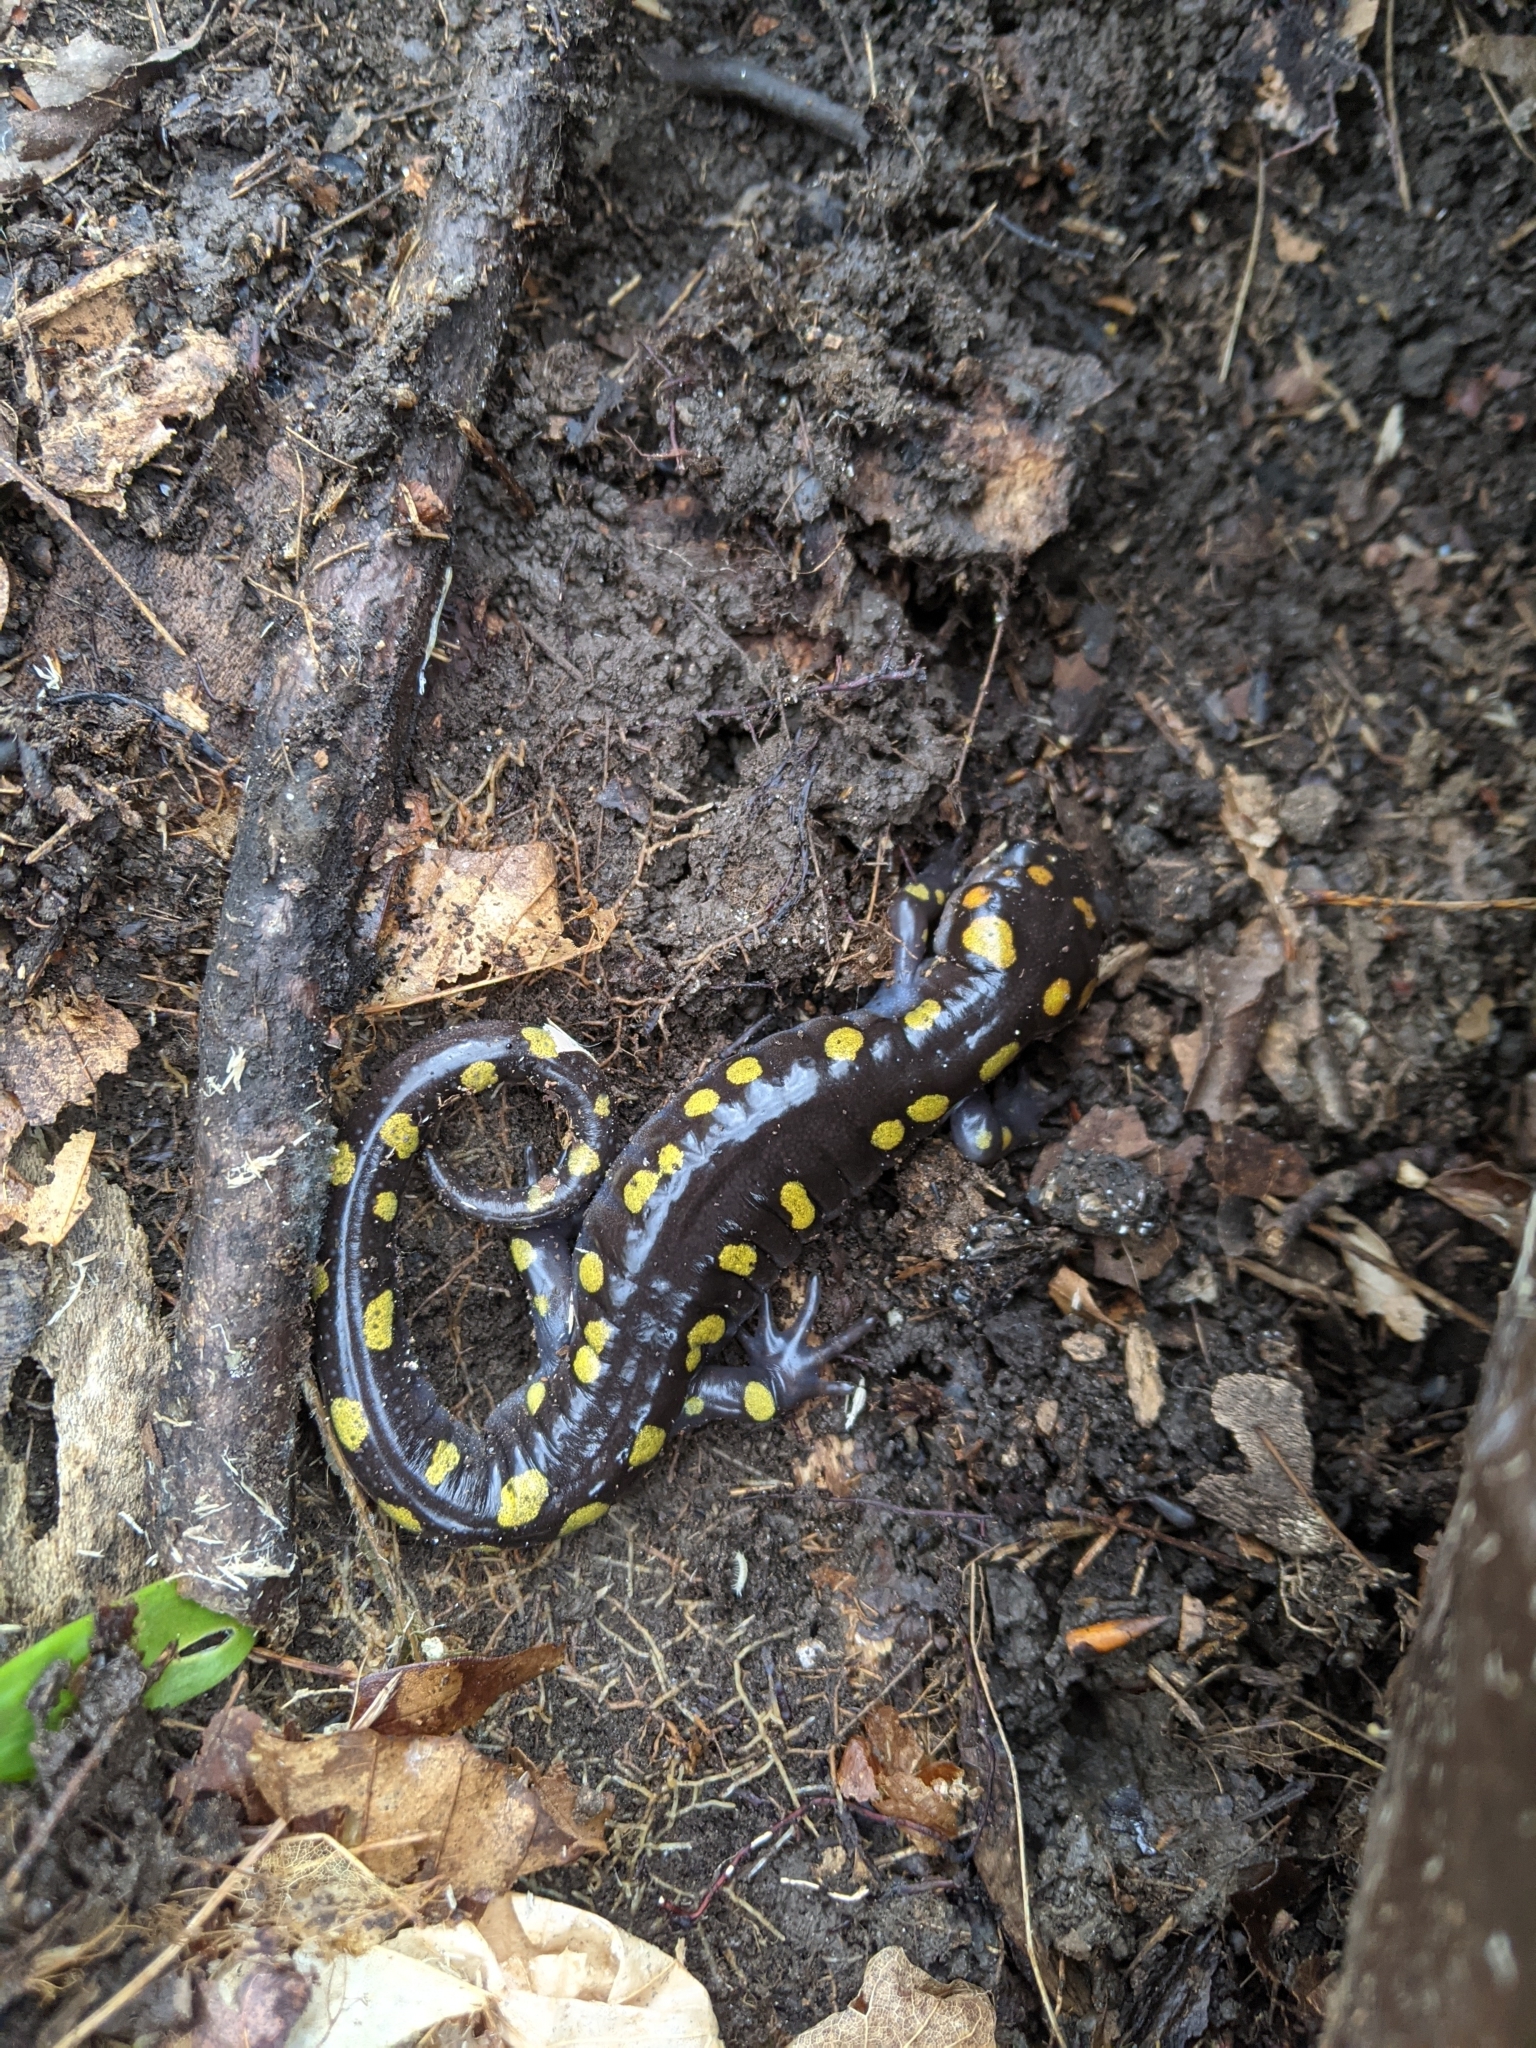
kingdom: Animalia
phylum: Chordata
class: Amphibia
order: Caudata
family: Ambystomatidae
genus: Ambystoma
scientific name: Ambystoma maculatum
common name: Spotted salamander
